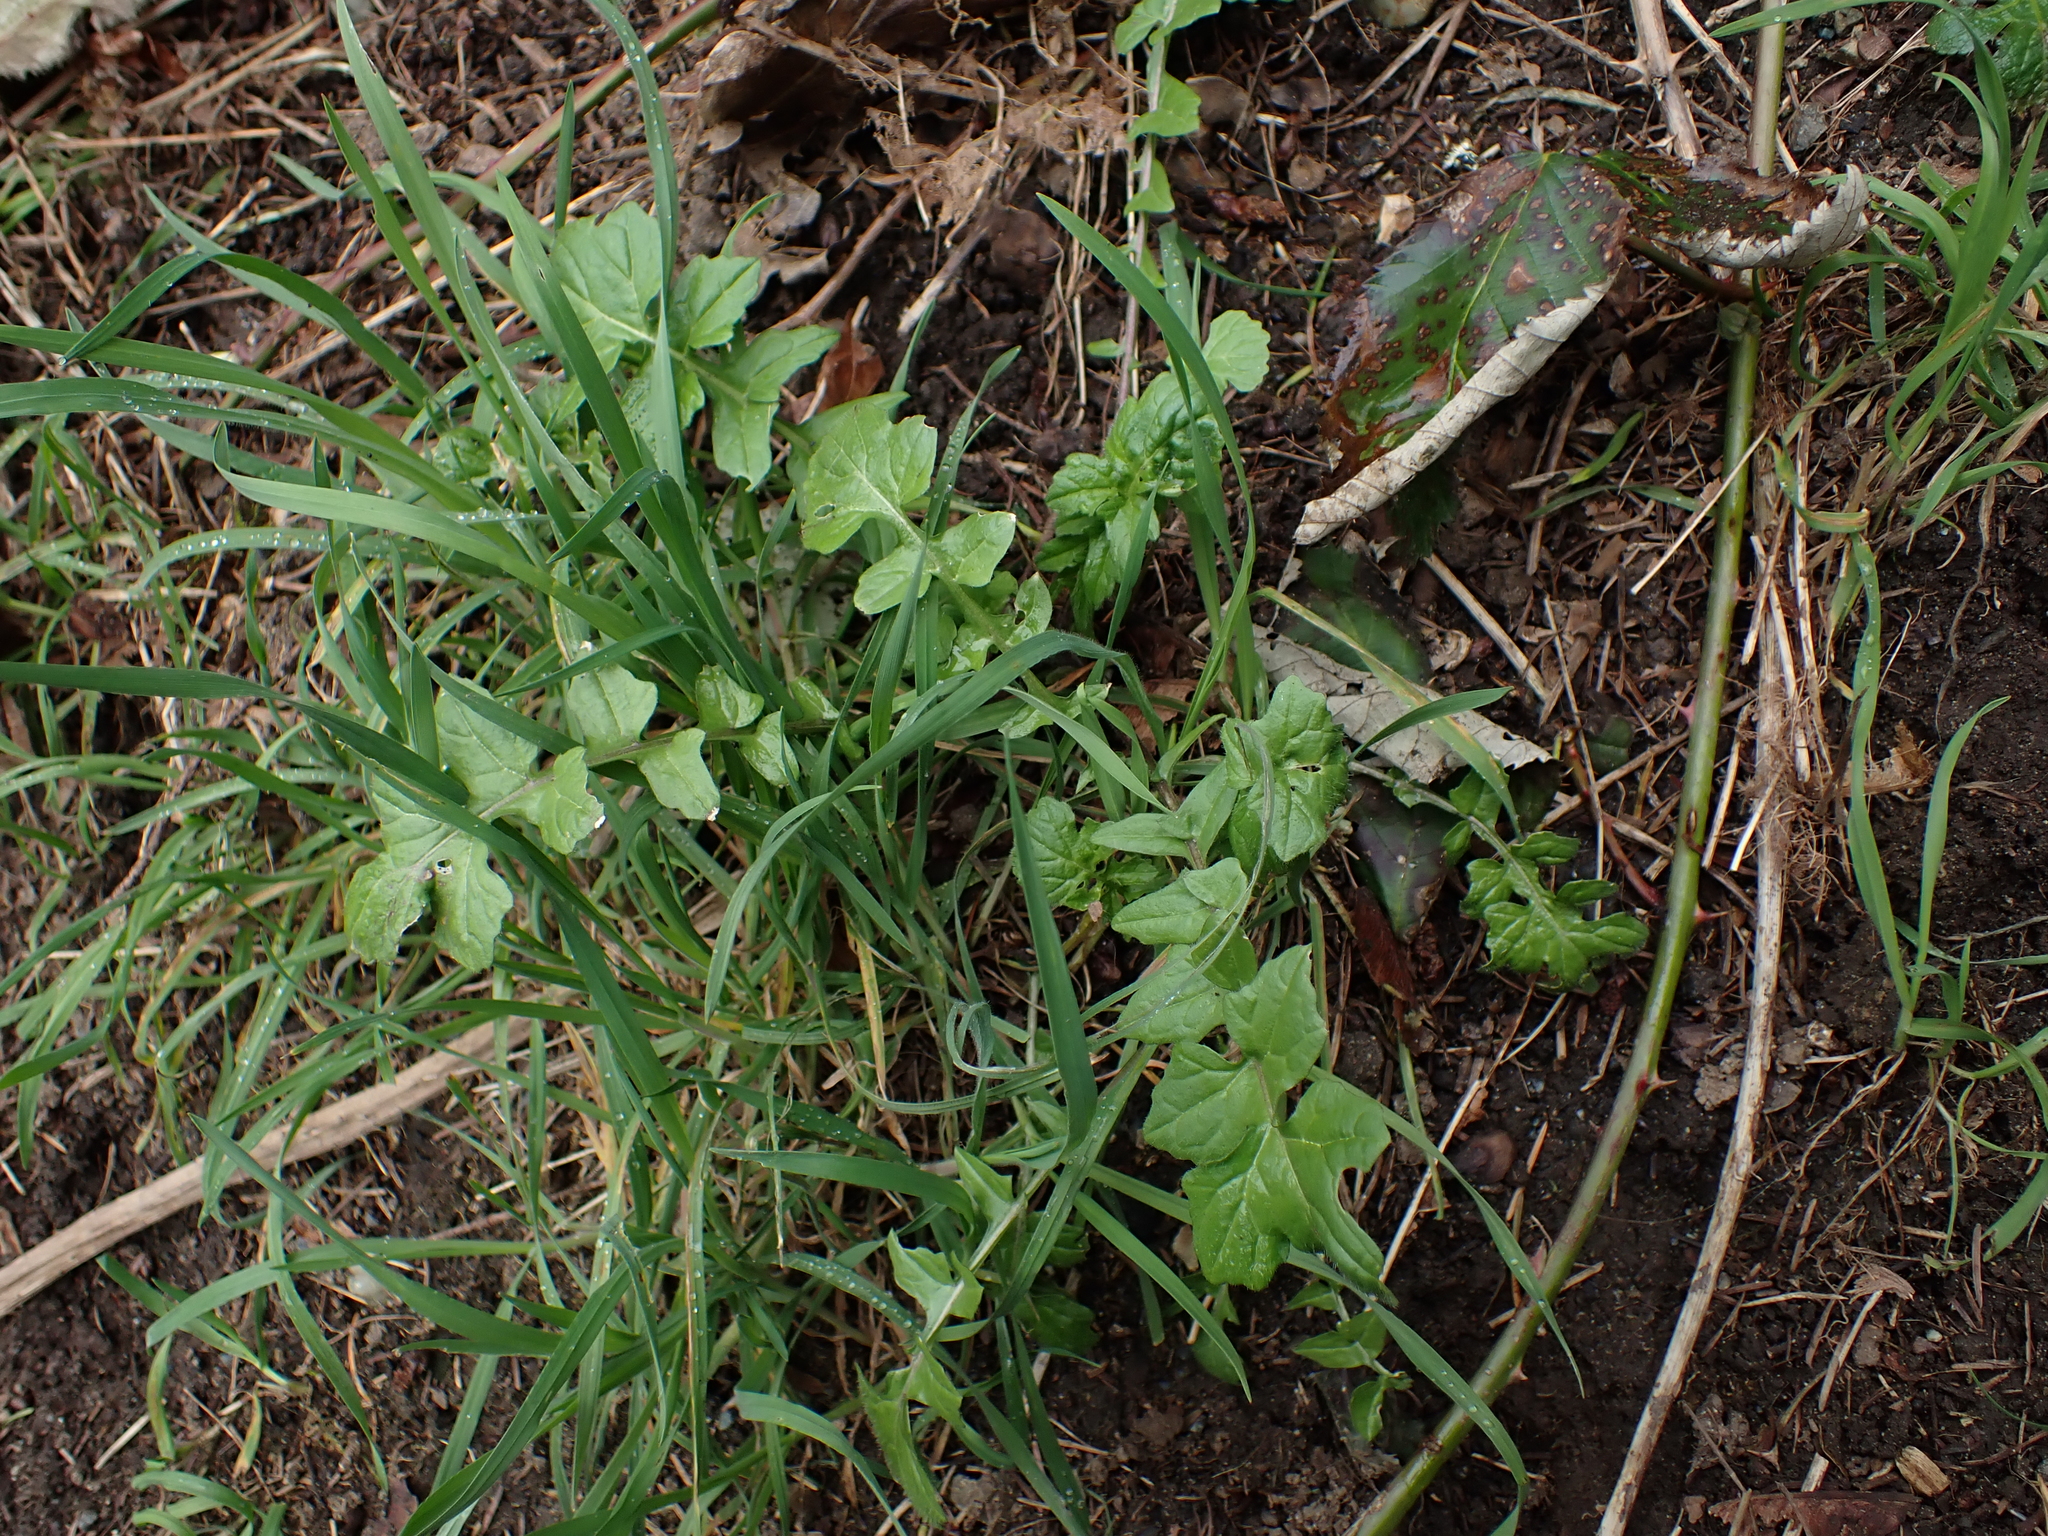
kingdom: Plantae
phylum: Tracheophyta
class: Magnoliopsida
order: Brassicales
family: Brassicaceae
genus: Sisymbrium
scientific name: Sisymbrium officinale
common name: Hedge mustard
